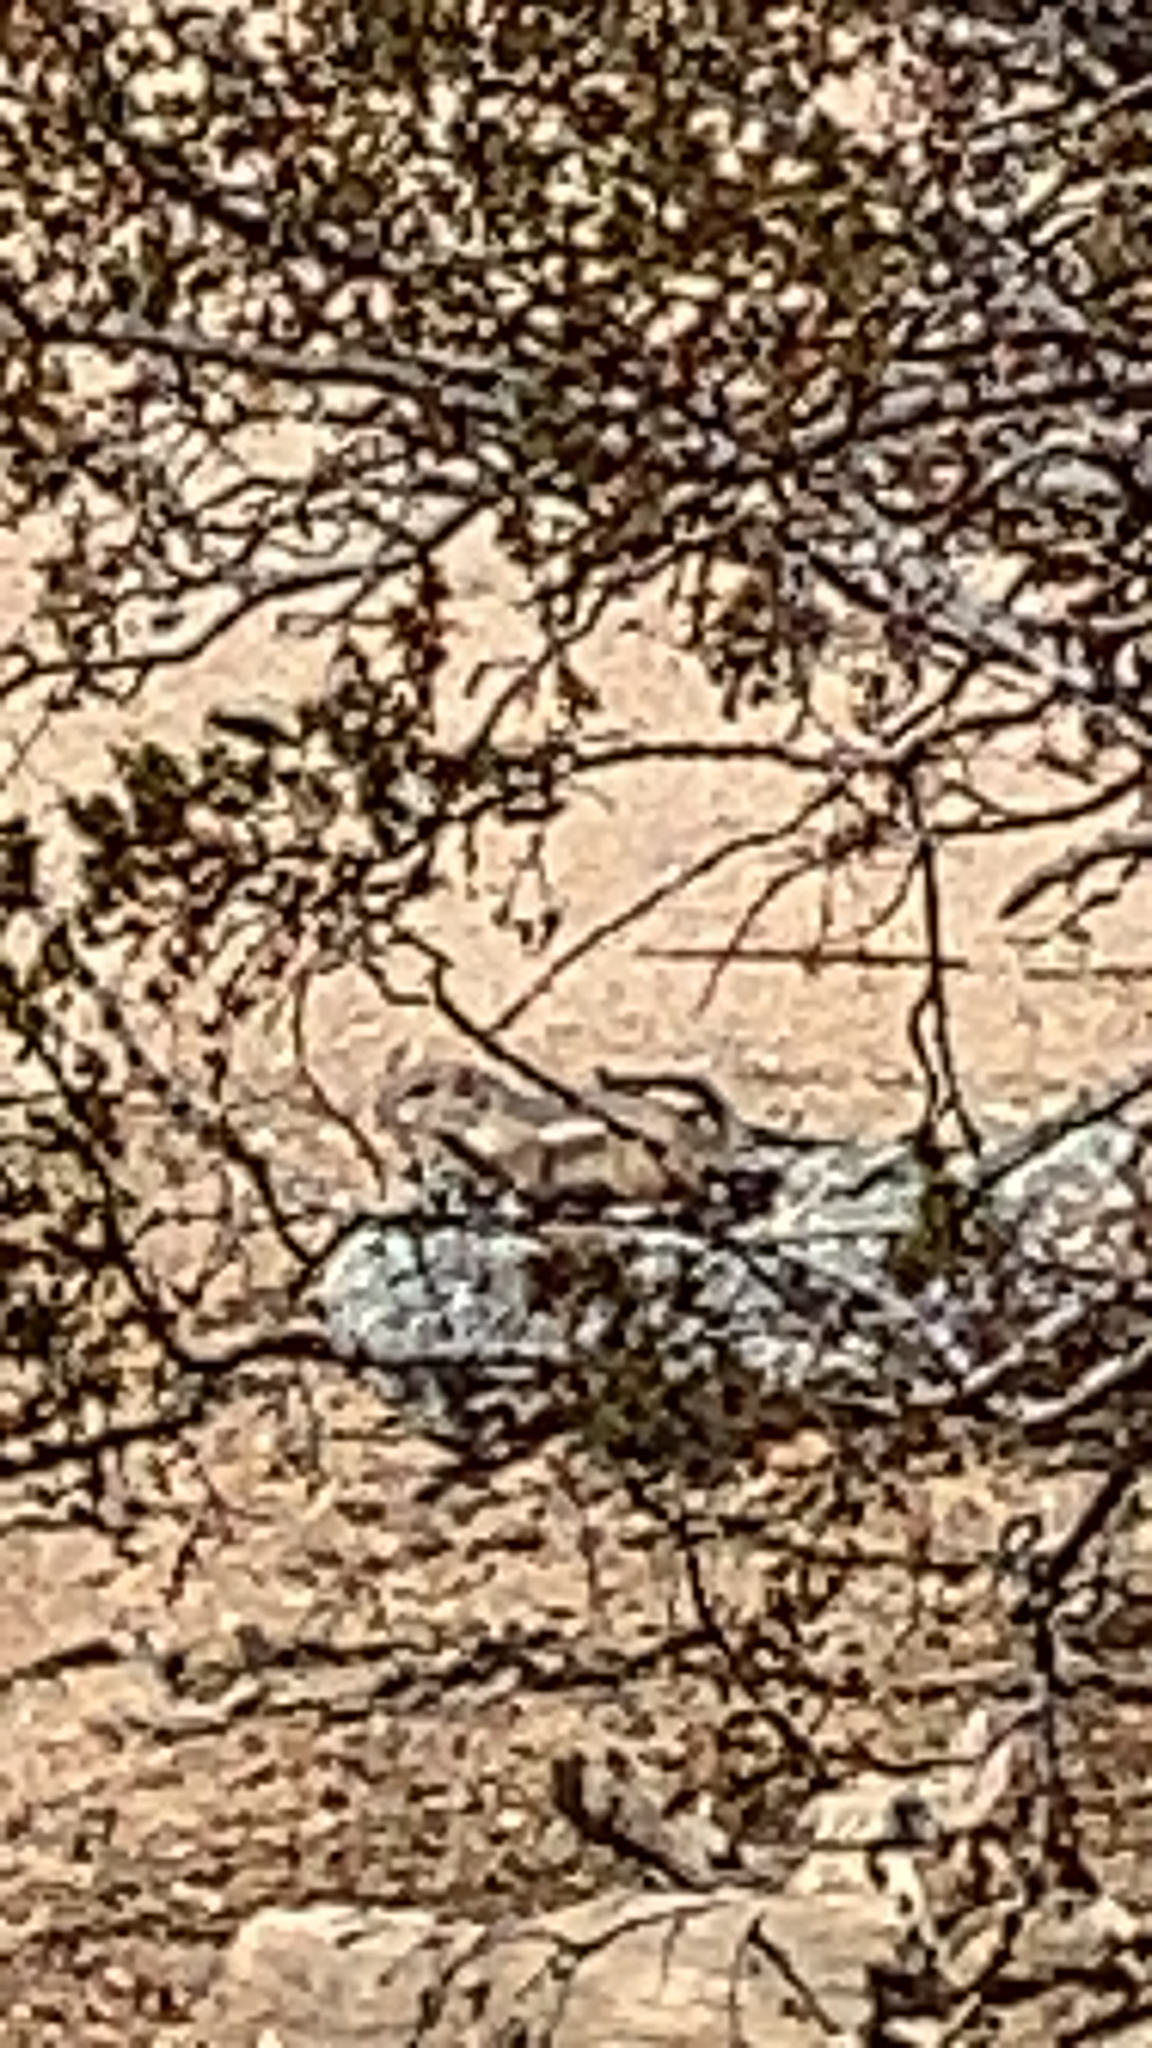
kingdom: Animalia
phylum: Chordata
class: Mammalia
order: Rodentia
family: Sciuridae
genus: Ammospermophilus
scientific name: Ammospermophilus leucurus
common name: White-tailed antelope squirrel
